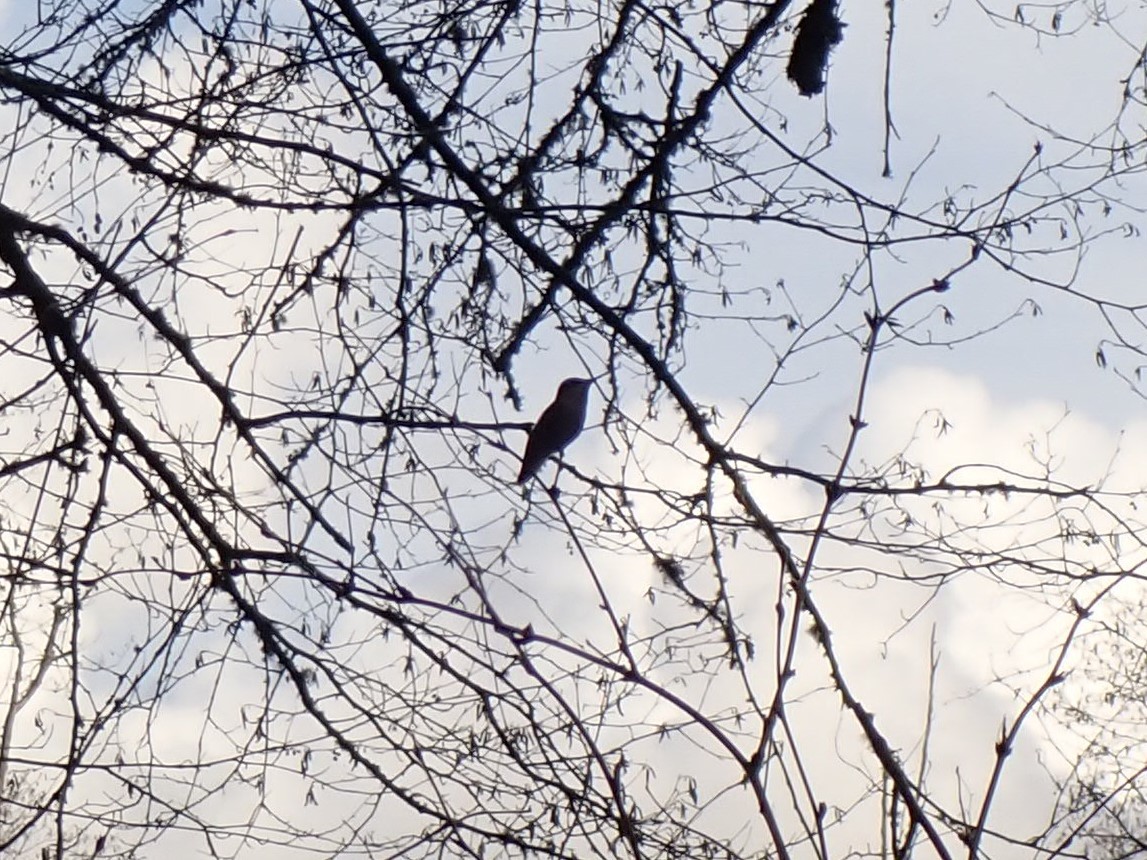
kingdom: Animalia
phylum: Chordata
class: Aves
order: Apodiformes
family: Trochilidae
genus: Calypte
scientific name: Calypte anna
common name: Anna's hummingbird
